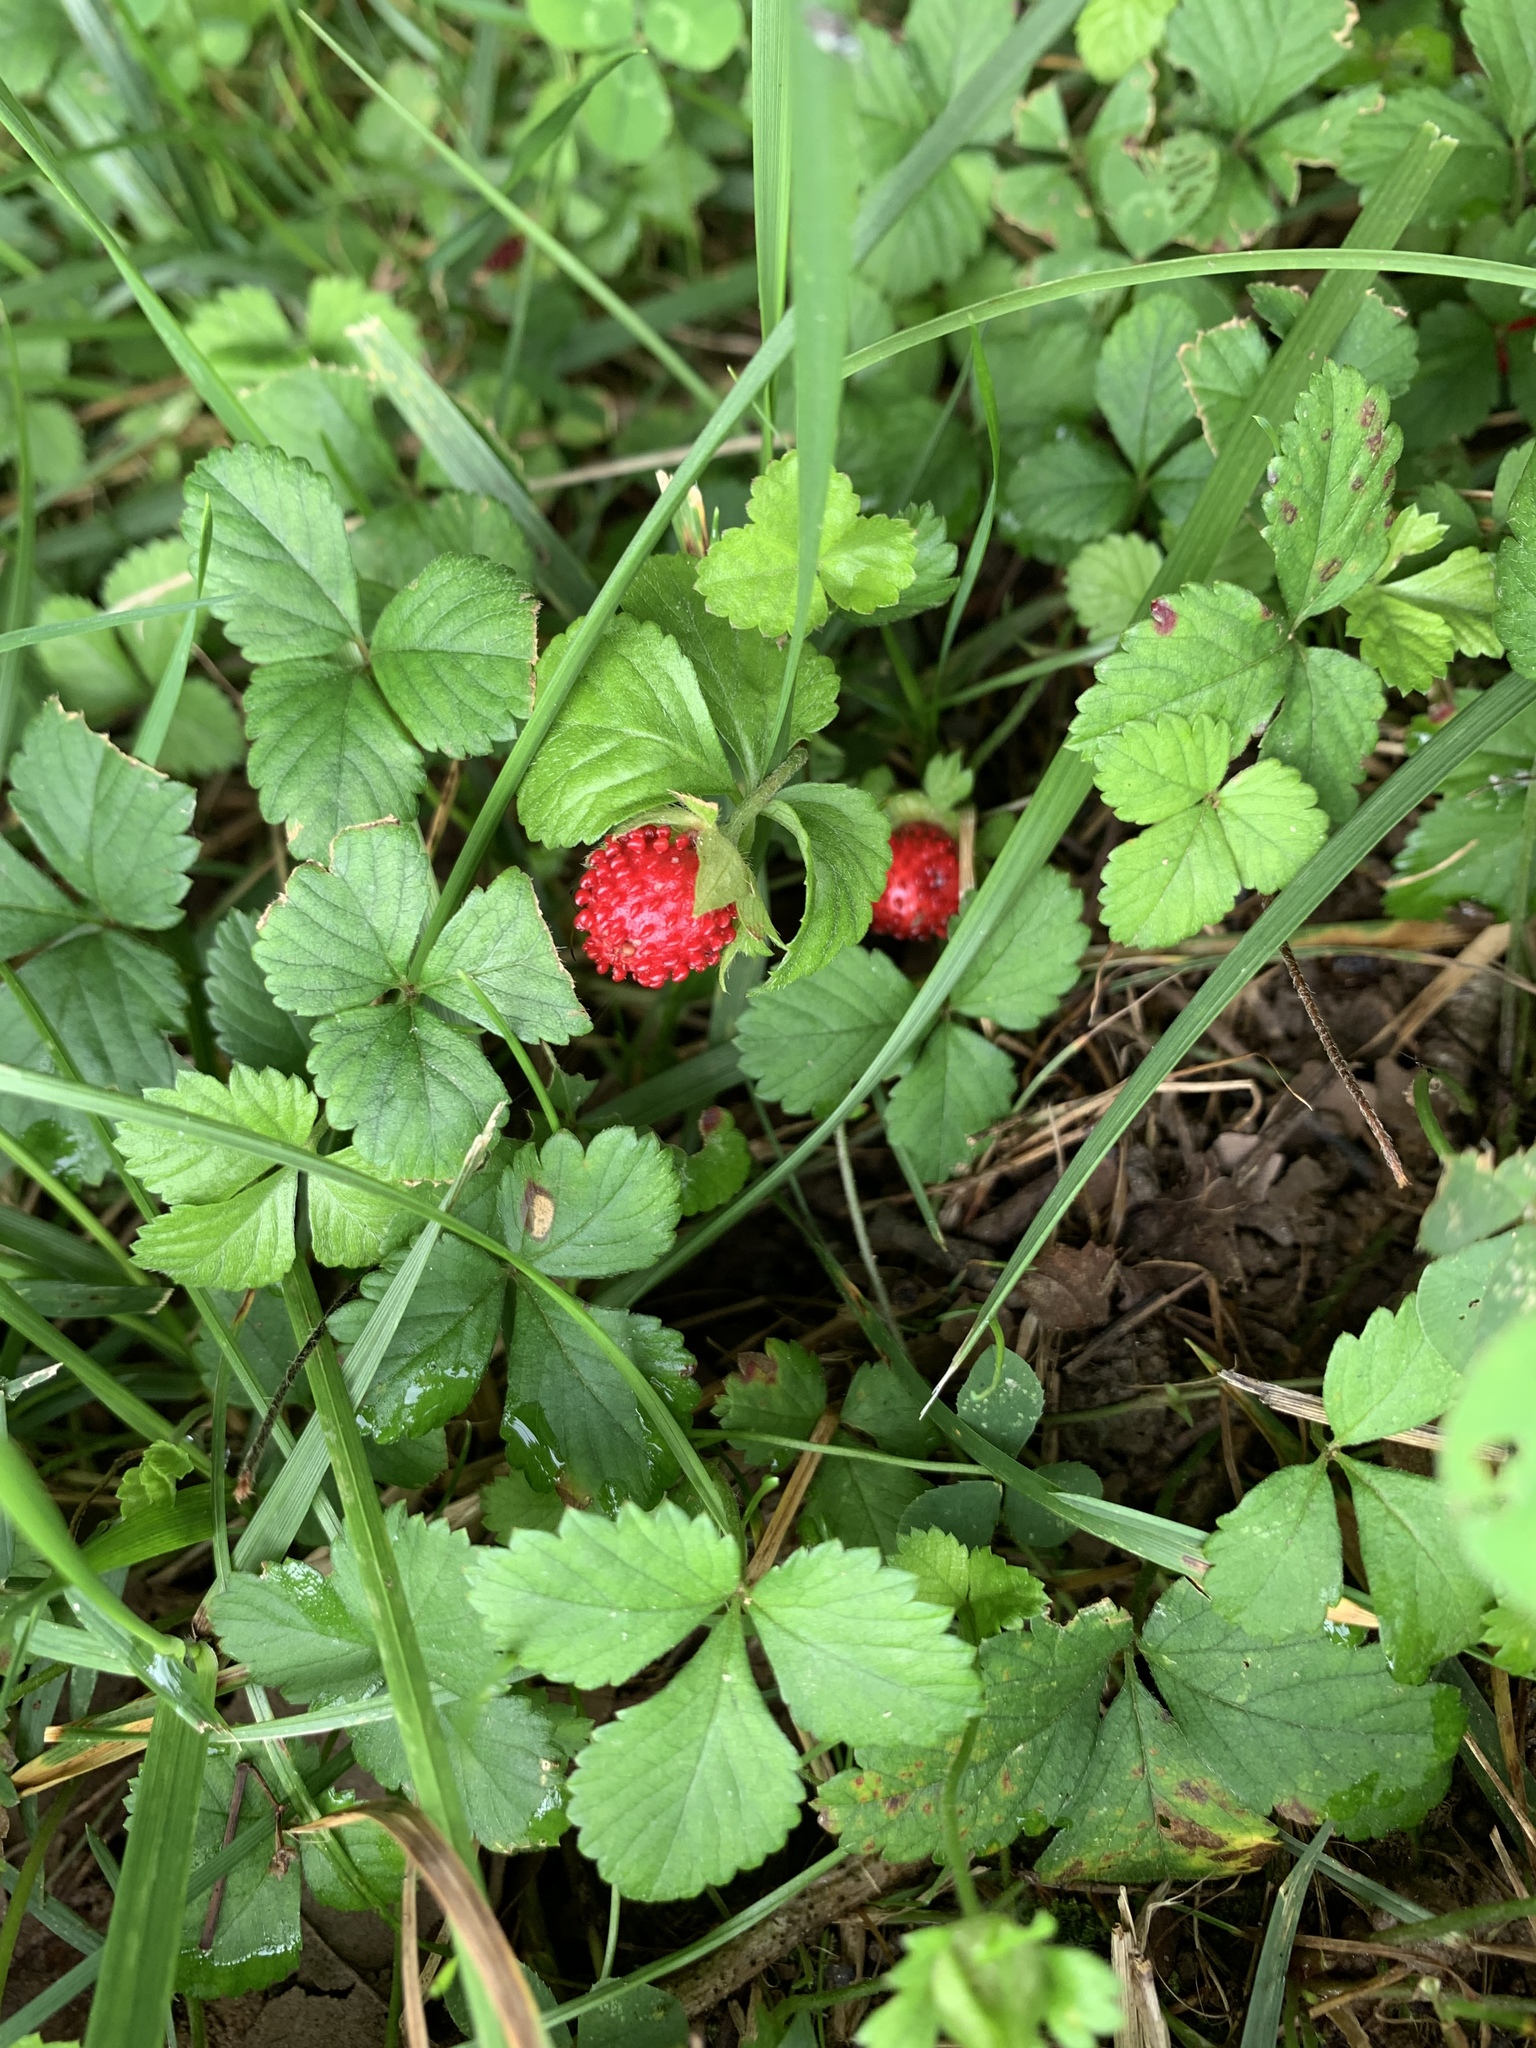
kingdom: Plantae
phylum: Tracheophyta
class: Magnoliopsida
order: Rosales
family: Rosaceae
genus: Potentilla
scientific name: Potentilla indica
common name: Yellow-flowered strawberry
